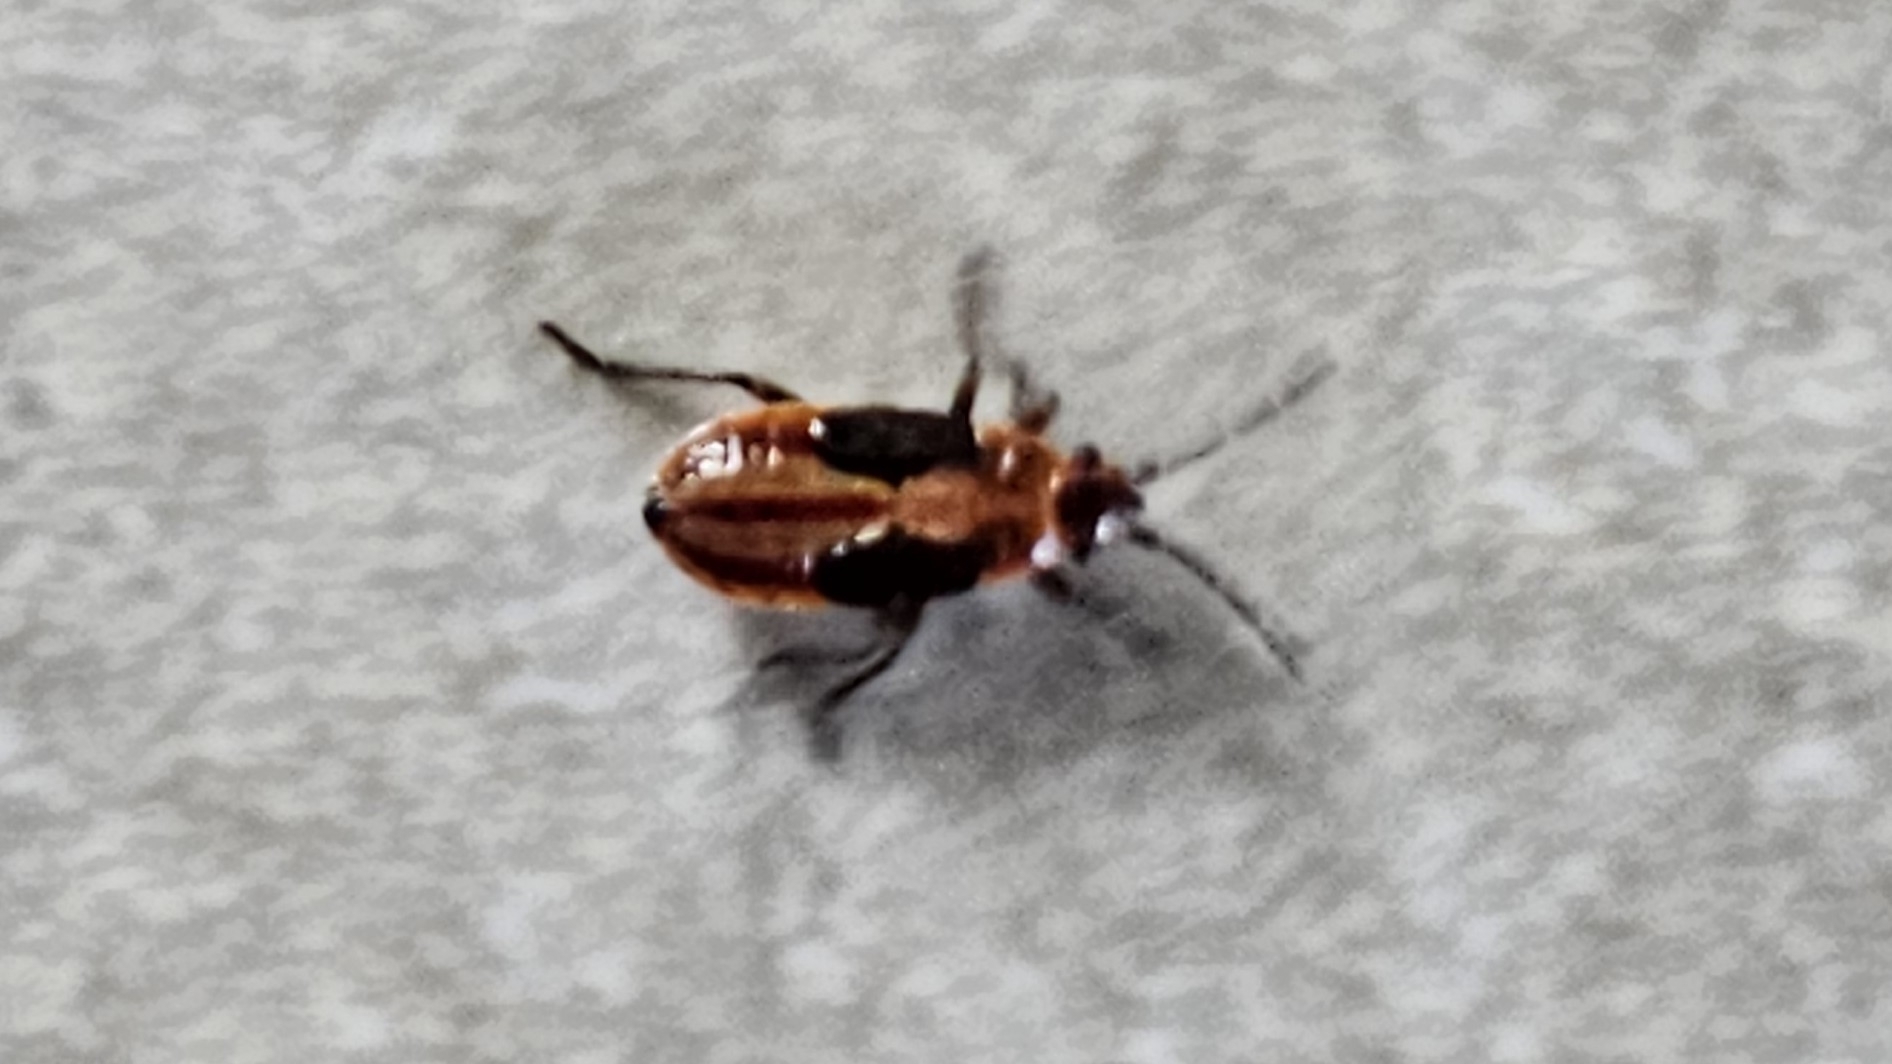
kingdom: Animalia
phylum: Arthropoda
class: Insecta
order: Hemiptera
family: Lygaeidae
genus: Melanocoryphus
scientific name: Melanocoryphus albomaculatus
